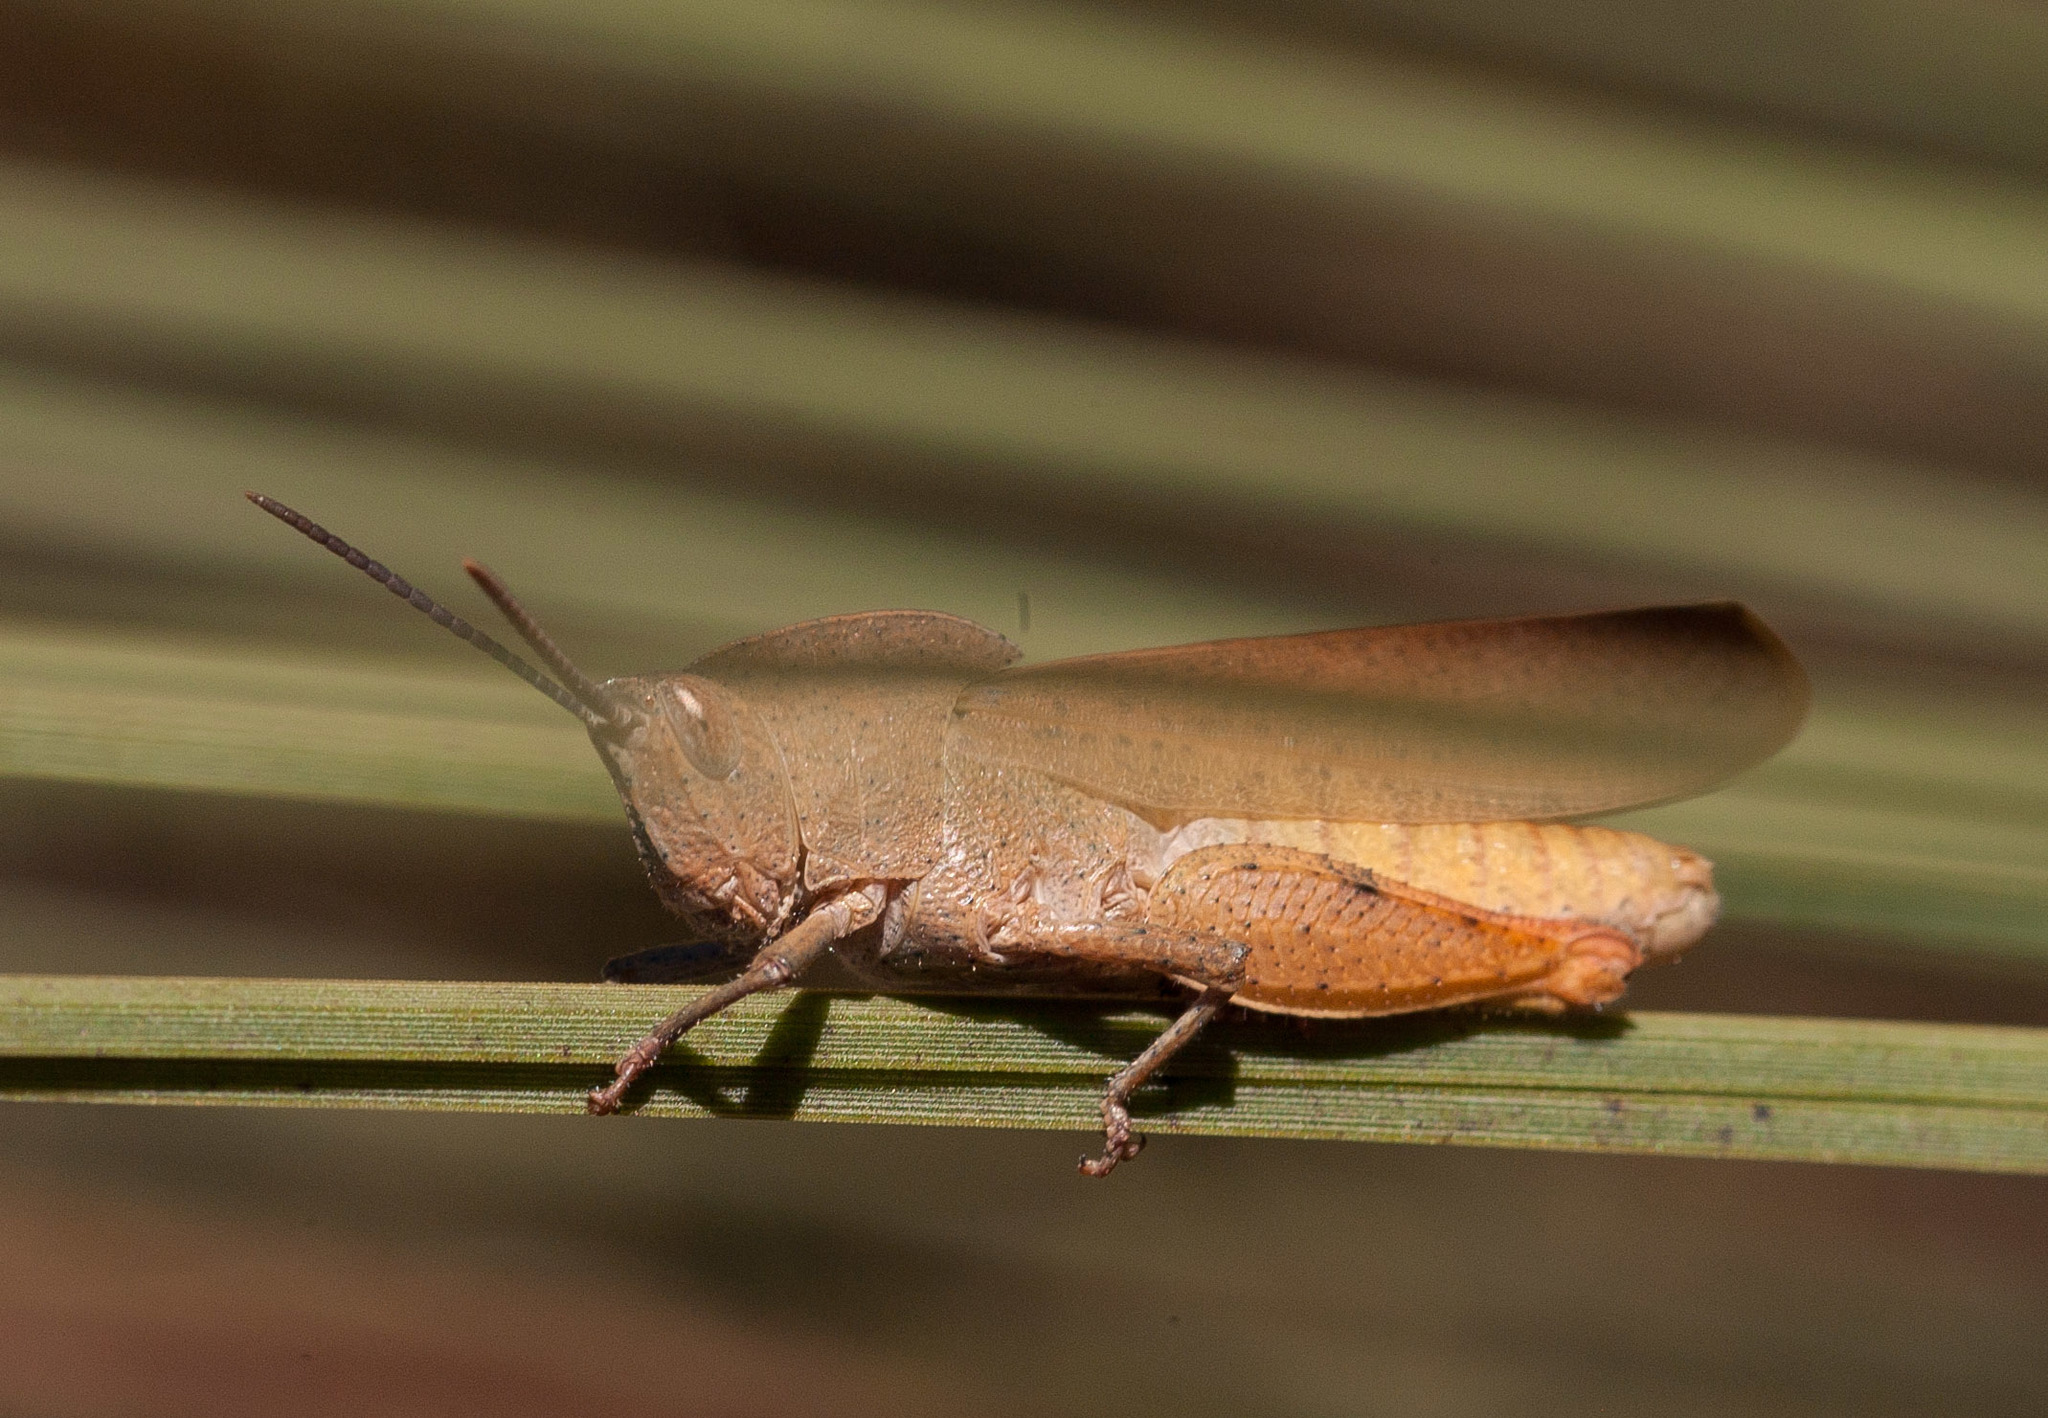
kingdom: Animalia
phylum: Arthropoda
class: Insecta
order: Orthoptera
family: Acrididae
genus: Goniaea
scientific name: Goniaea australasiae
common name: Gumleaf grasshopper
